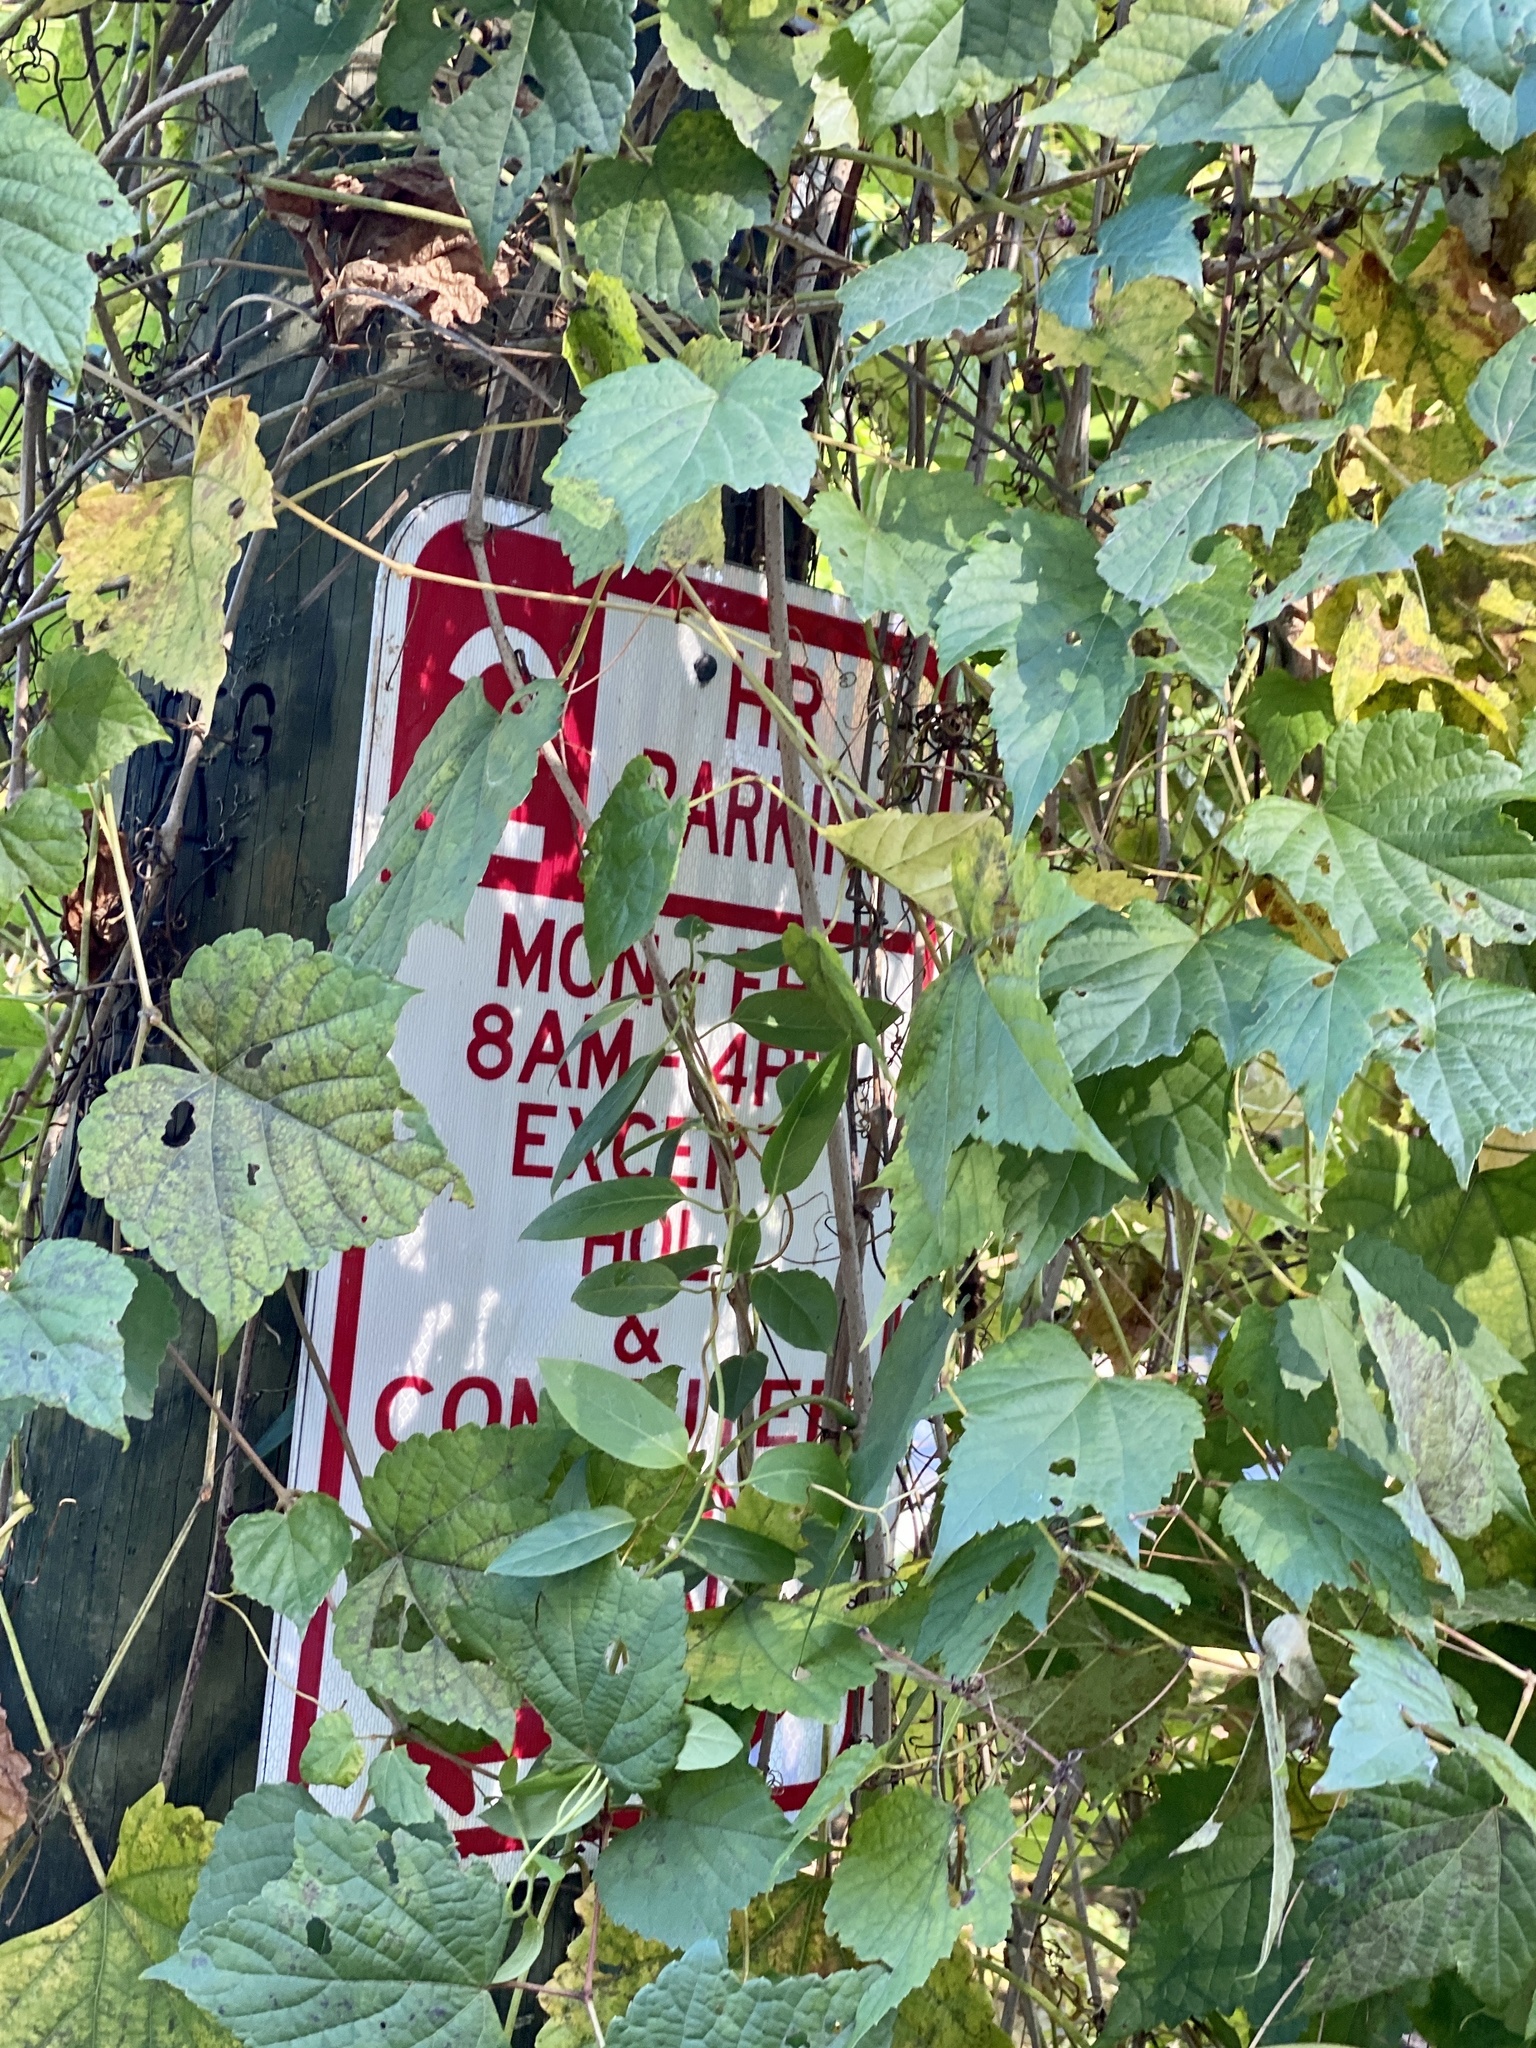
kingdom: Plantae
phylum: Tracheophyta
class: Magnoliopsida
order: Vitales
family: Vitaceae
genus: Ampelopsis
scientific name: Ampelopsis glandulosa
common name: Amur peppervine
